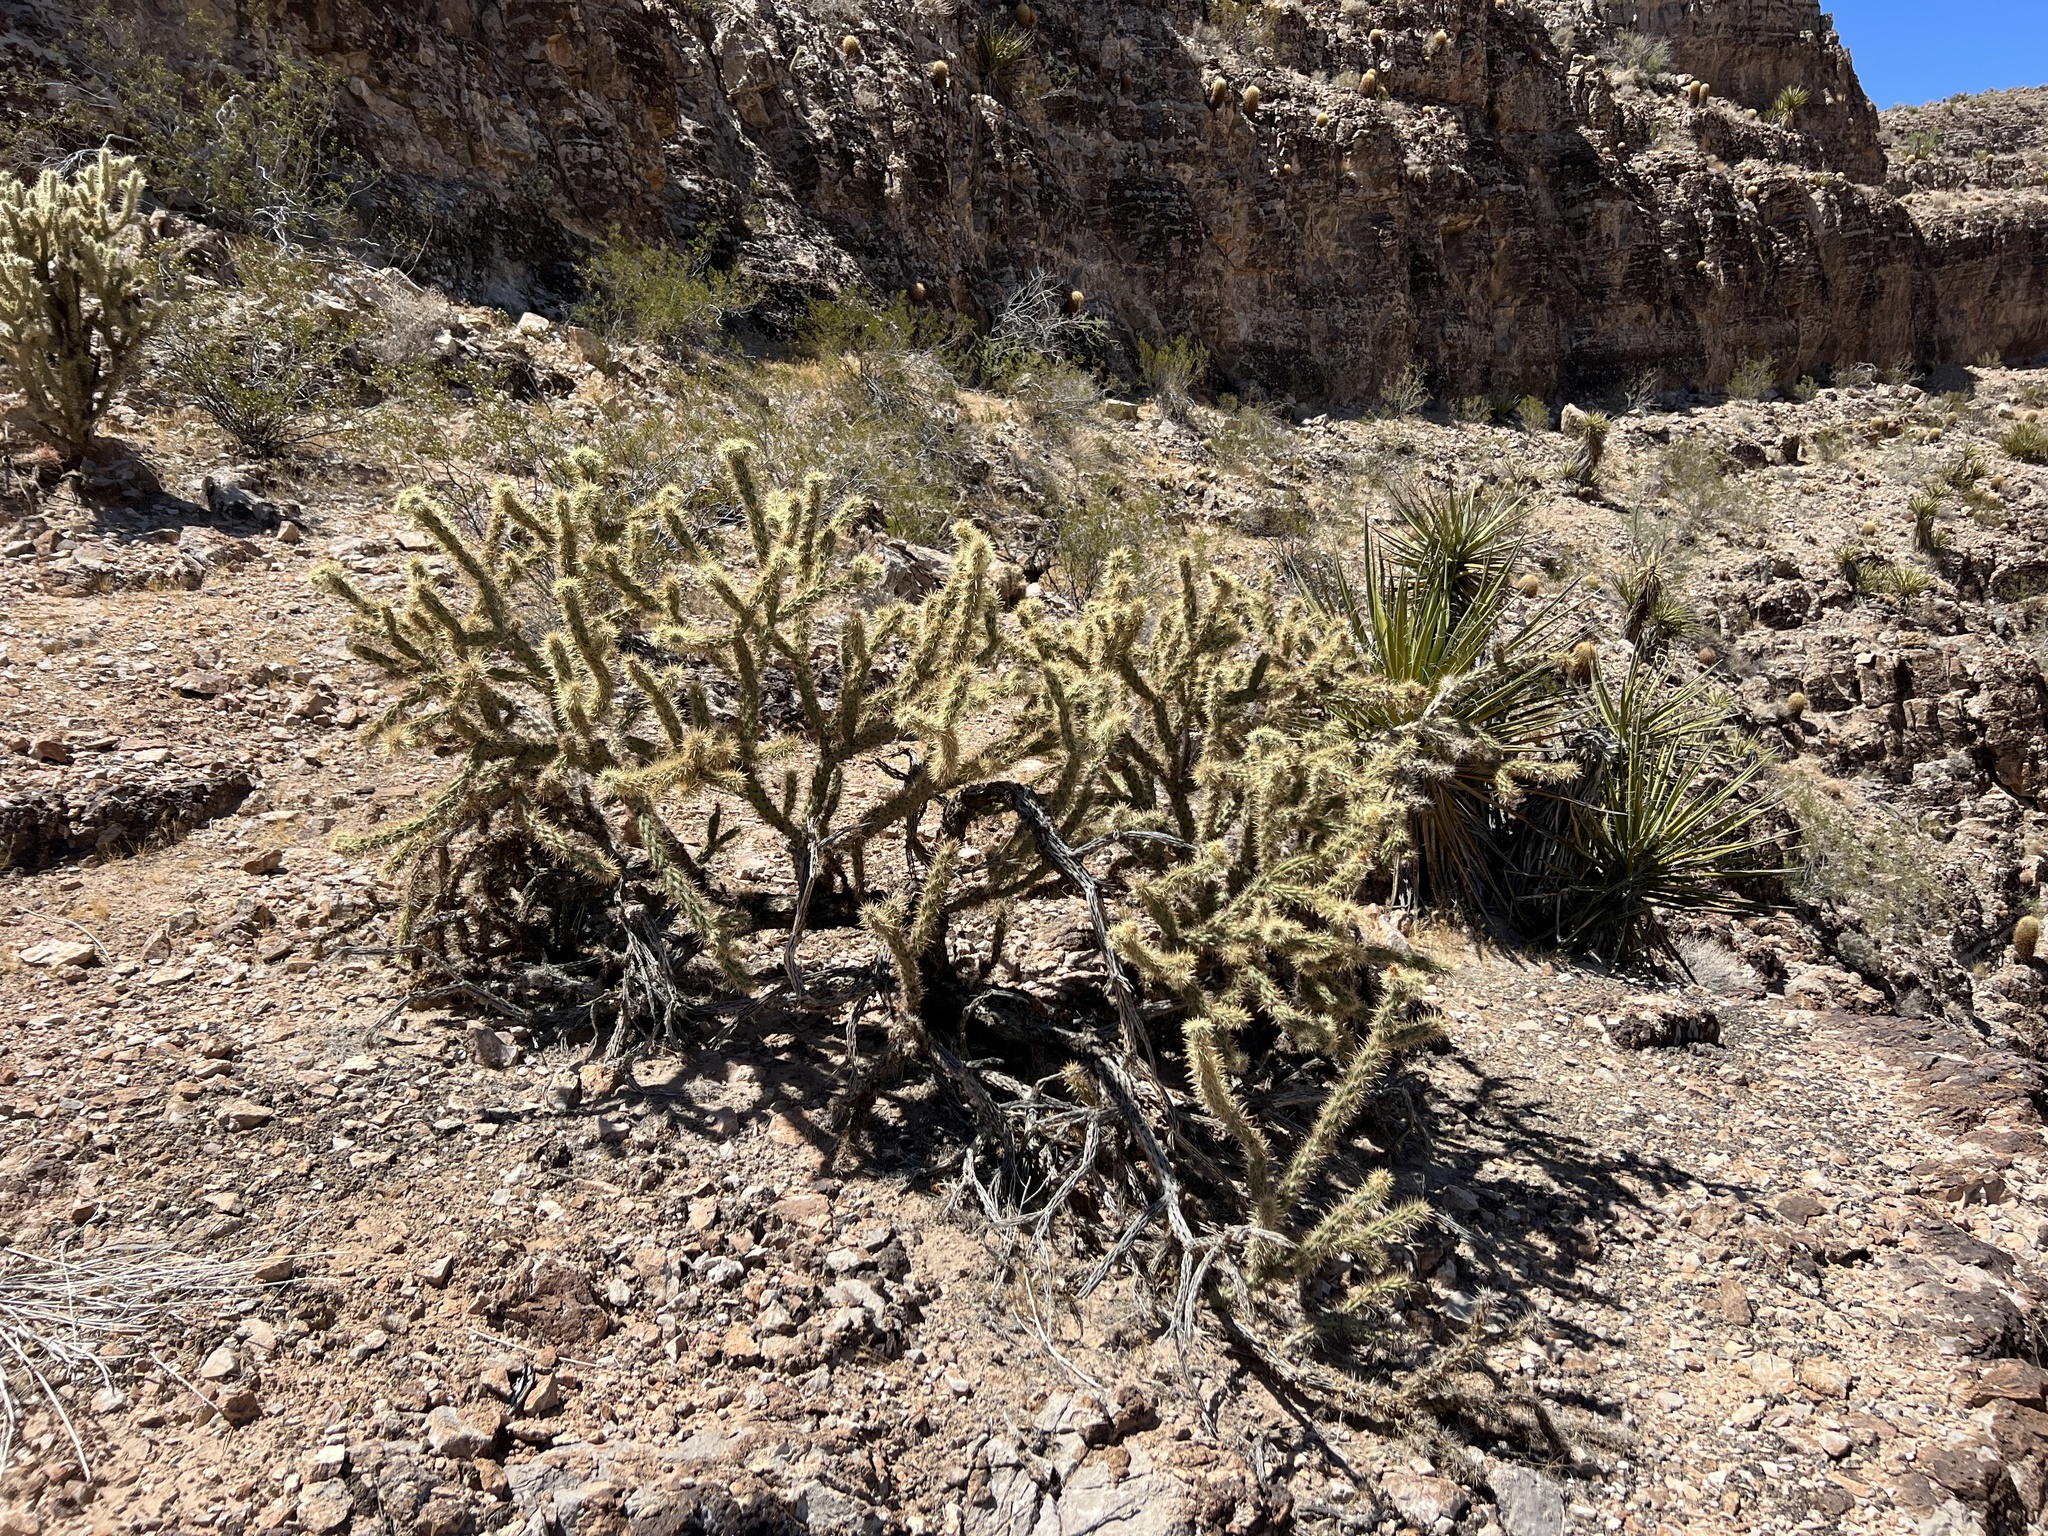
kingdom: Plantae
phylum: Tracheophyta
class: Magnoliopsida
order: Caryophyllales
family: Cactaceae
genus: Cylindropuntia
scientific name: Cylindropuntia acanthocarpa
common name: Buckhorn cholla
